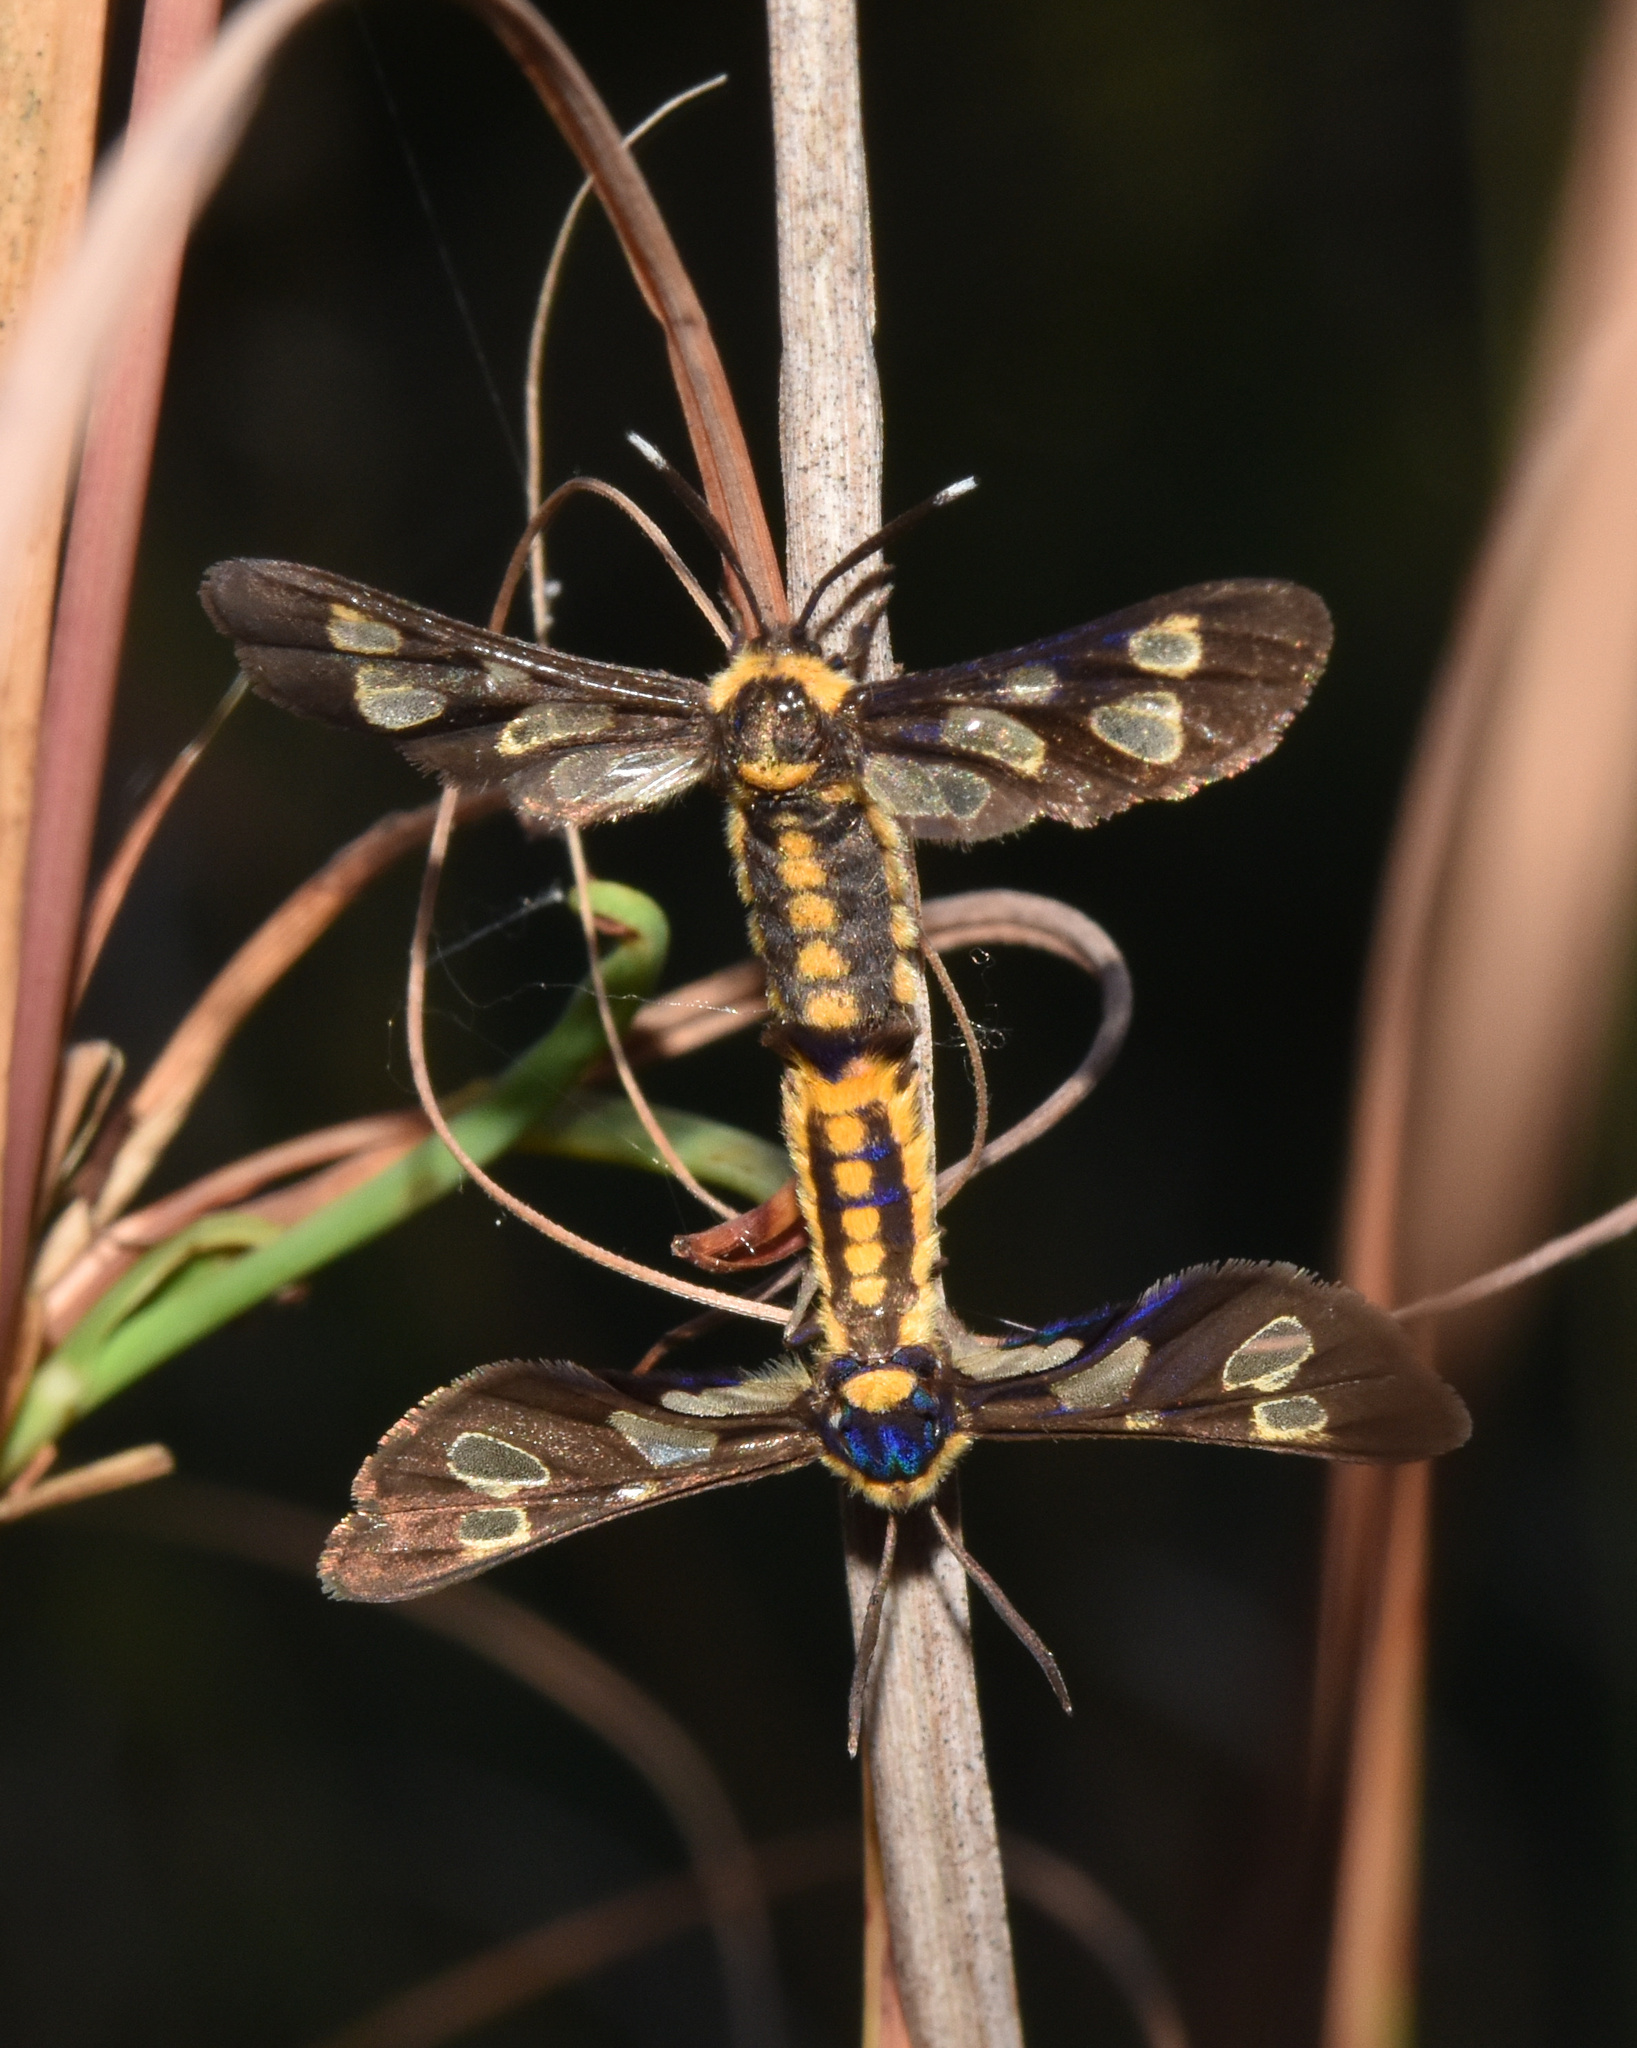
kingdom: Animalia
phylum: Arthropoda
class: Insecta
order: Lepidoptera
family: Erebidae
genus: Ceryx
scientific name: Ceryx anthraciformis
